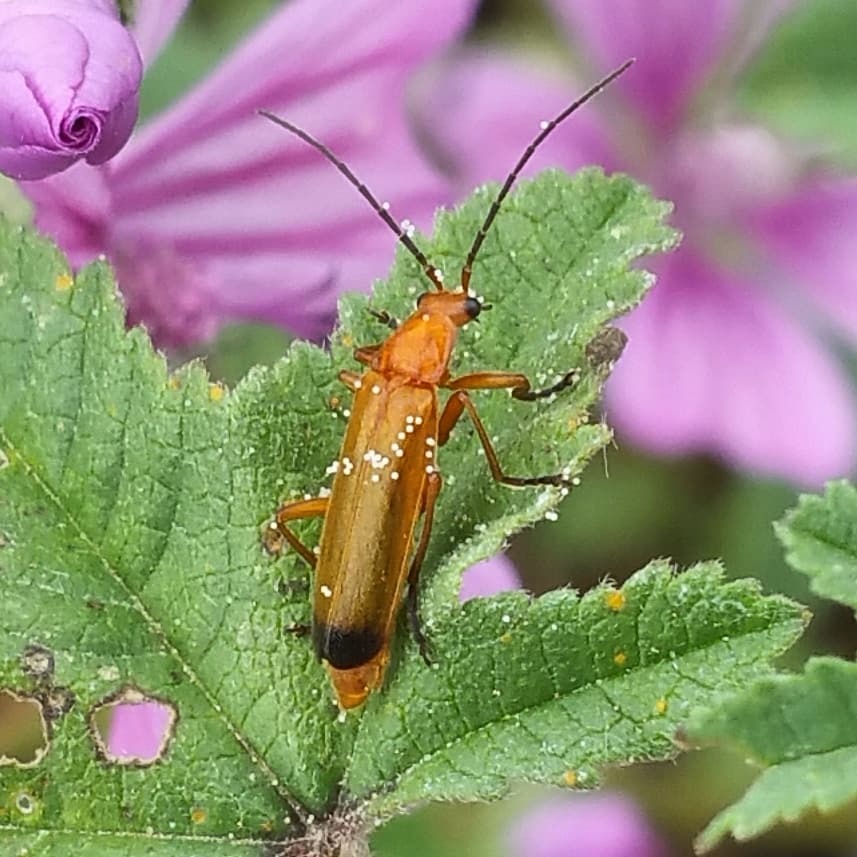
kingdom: Animalia
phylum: Arthropoda
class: Insecta
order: Coleoptera
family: Cantharidae
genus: Rhagonycha
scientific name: Rhagonycha fulva
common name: Common red soldier beetle
